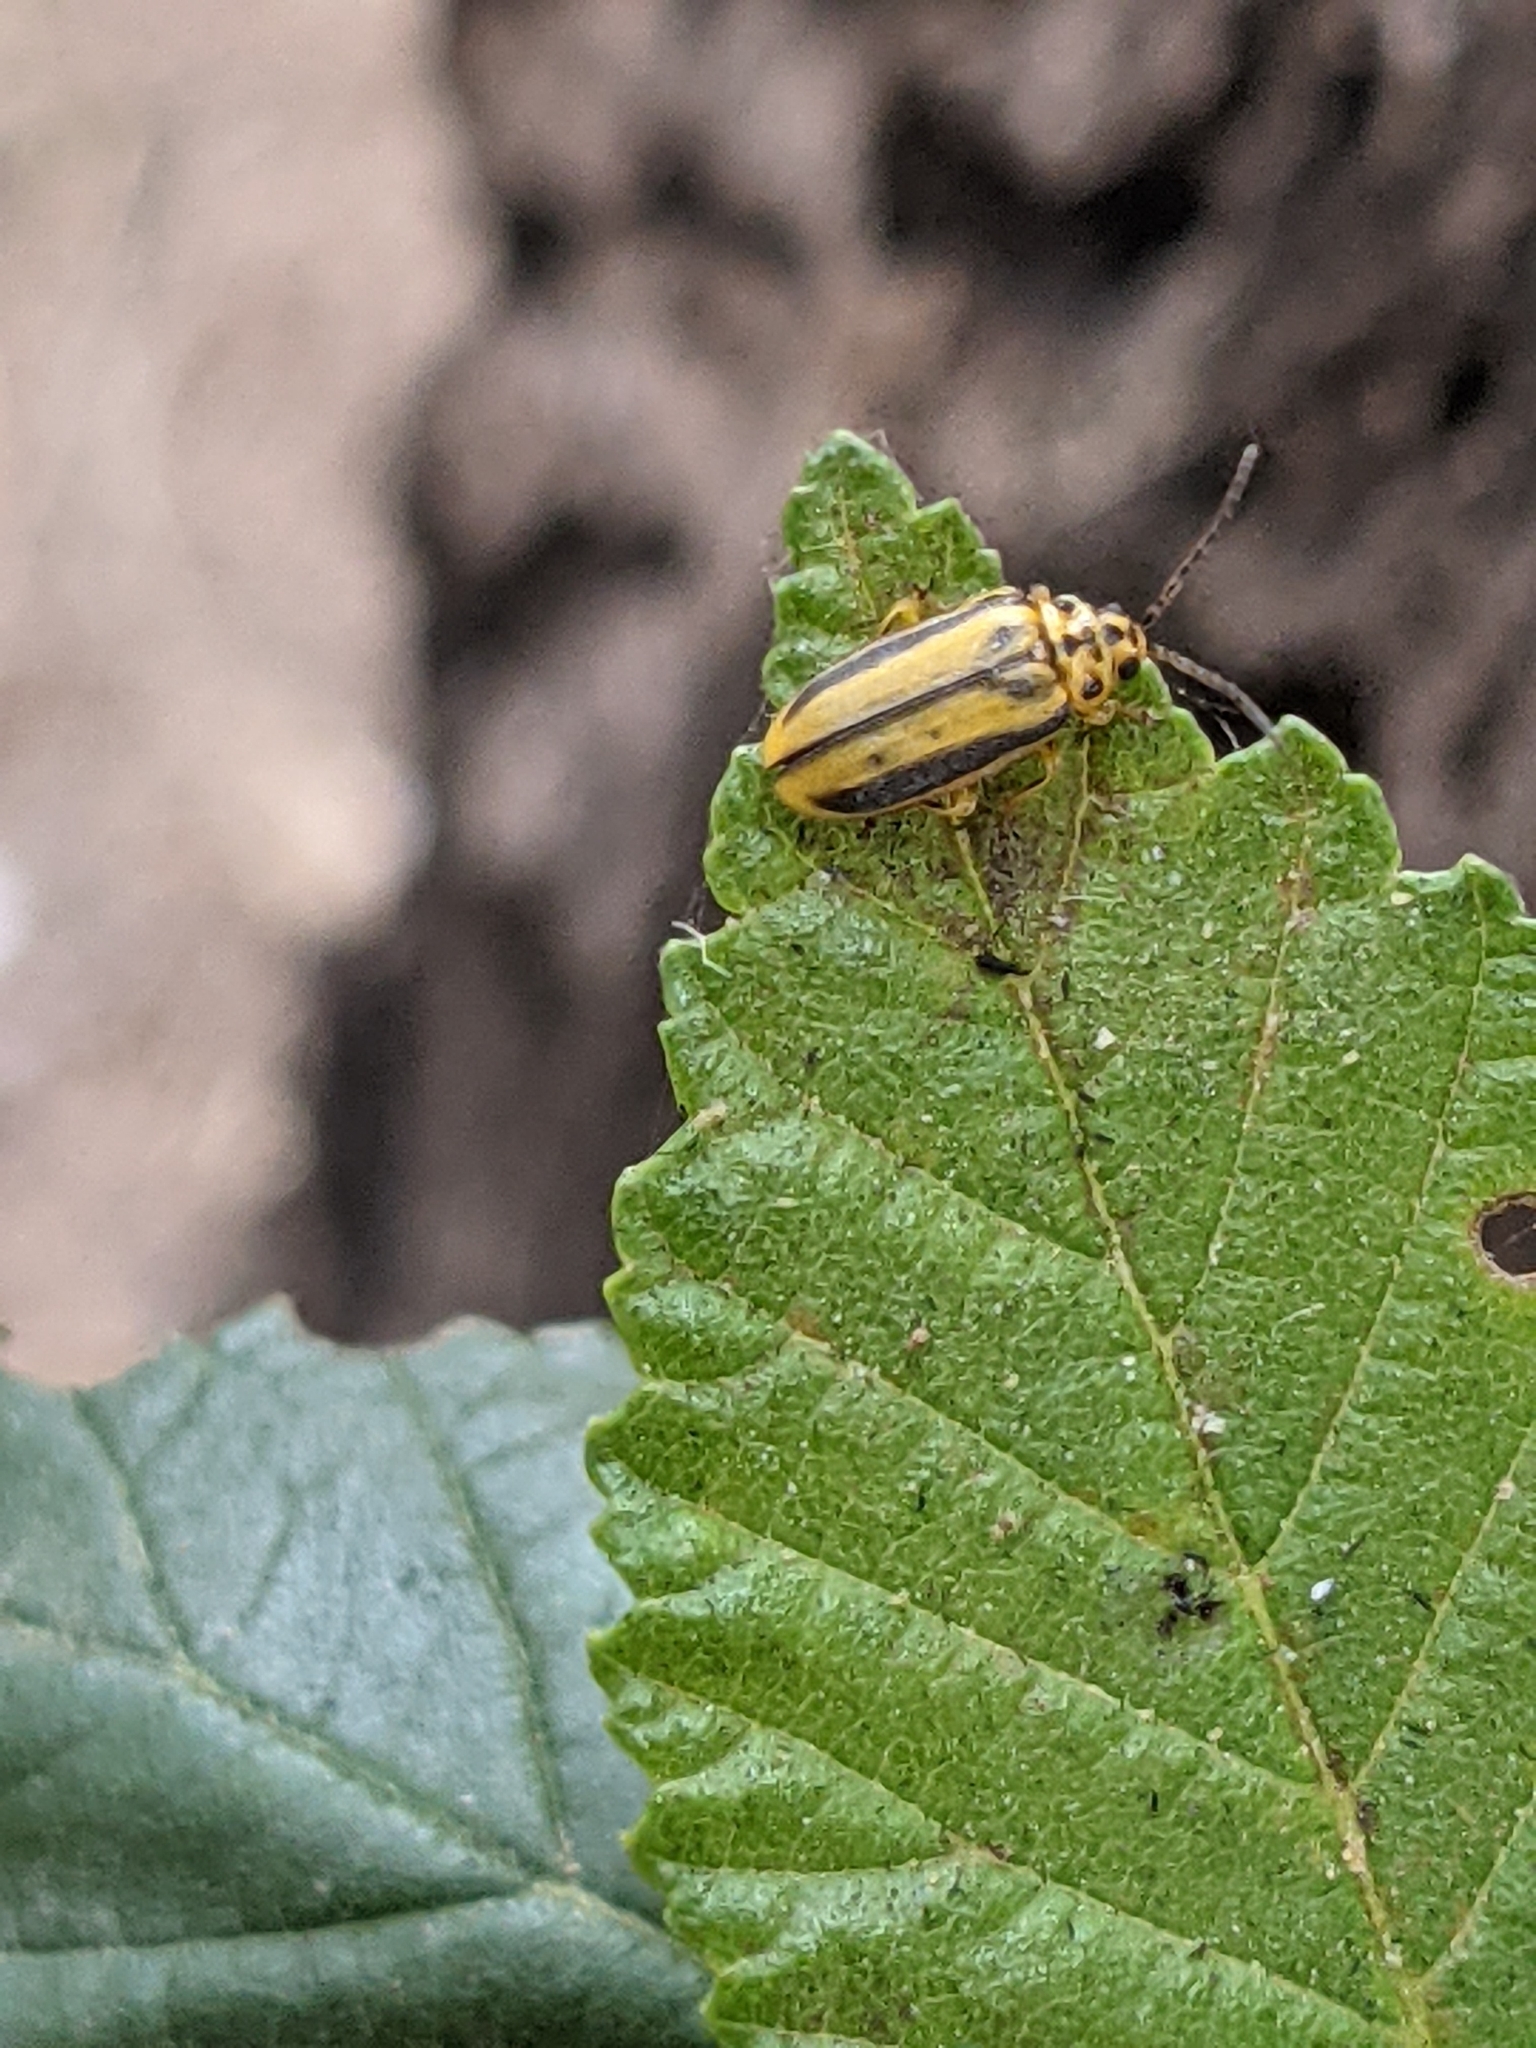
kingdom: Animalia
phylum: Arthropoda
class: Insecta
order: Coleoptera
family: Chrysomelidae
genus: Xanthogaleruca
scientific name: Xanthogaleruca luteola
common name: Elm leaf beetle
